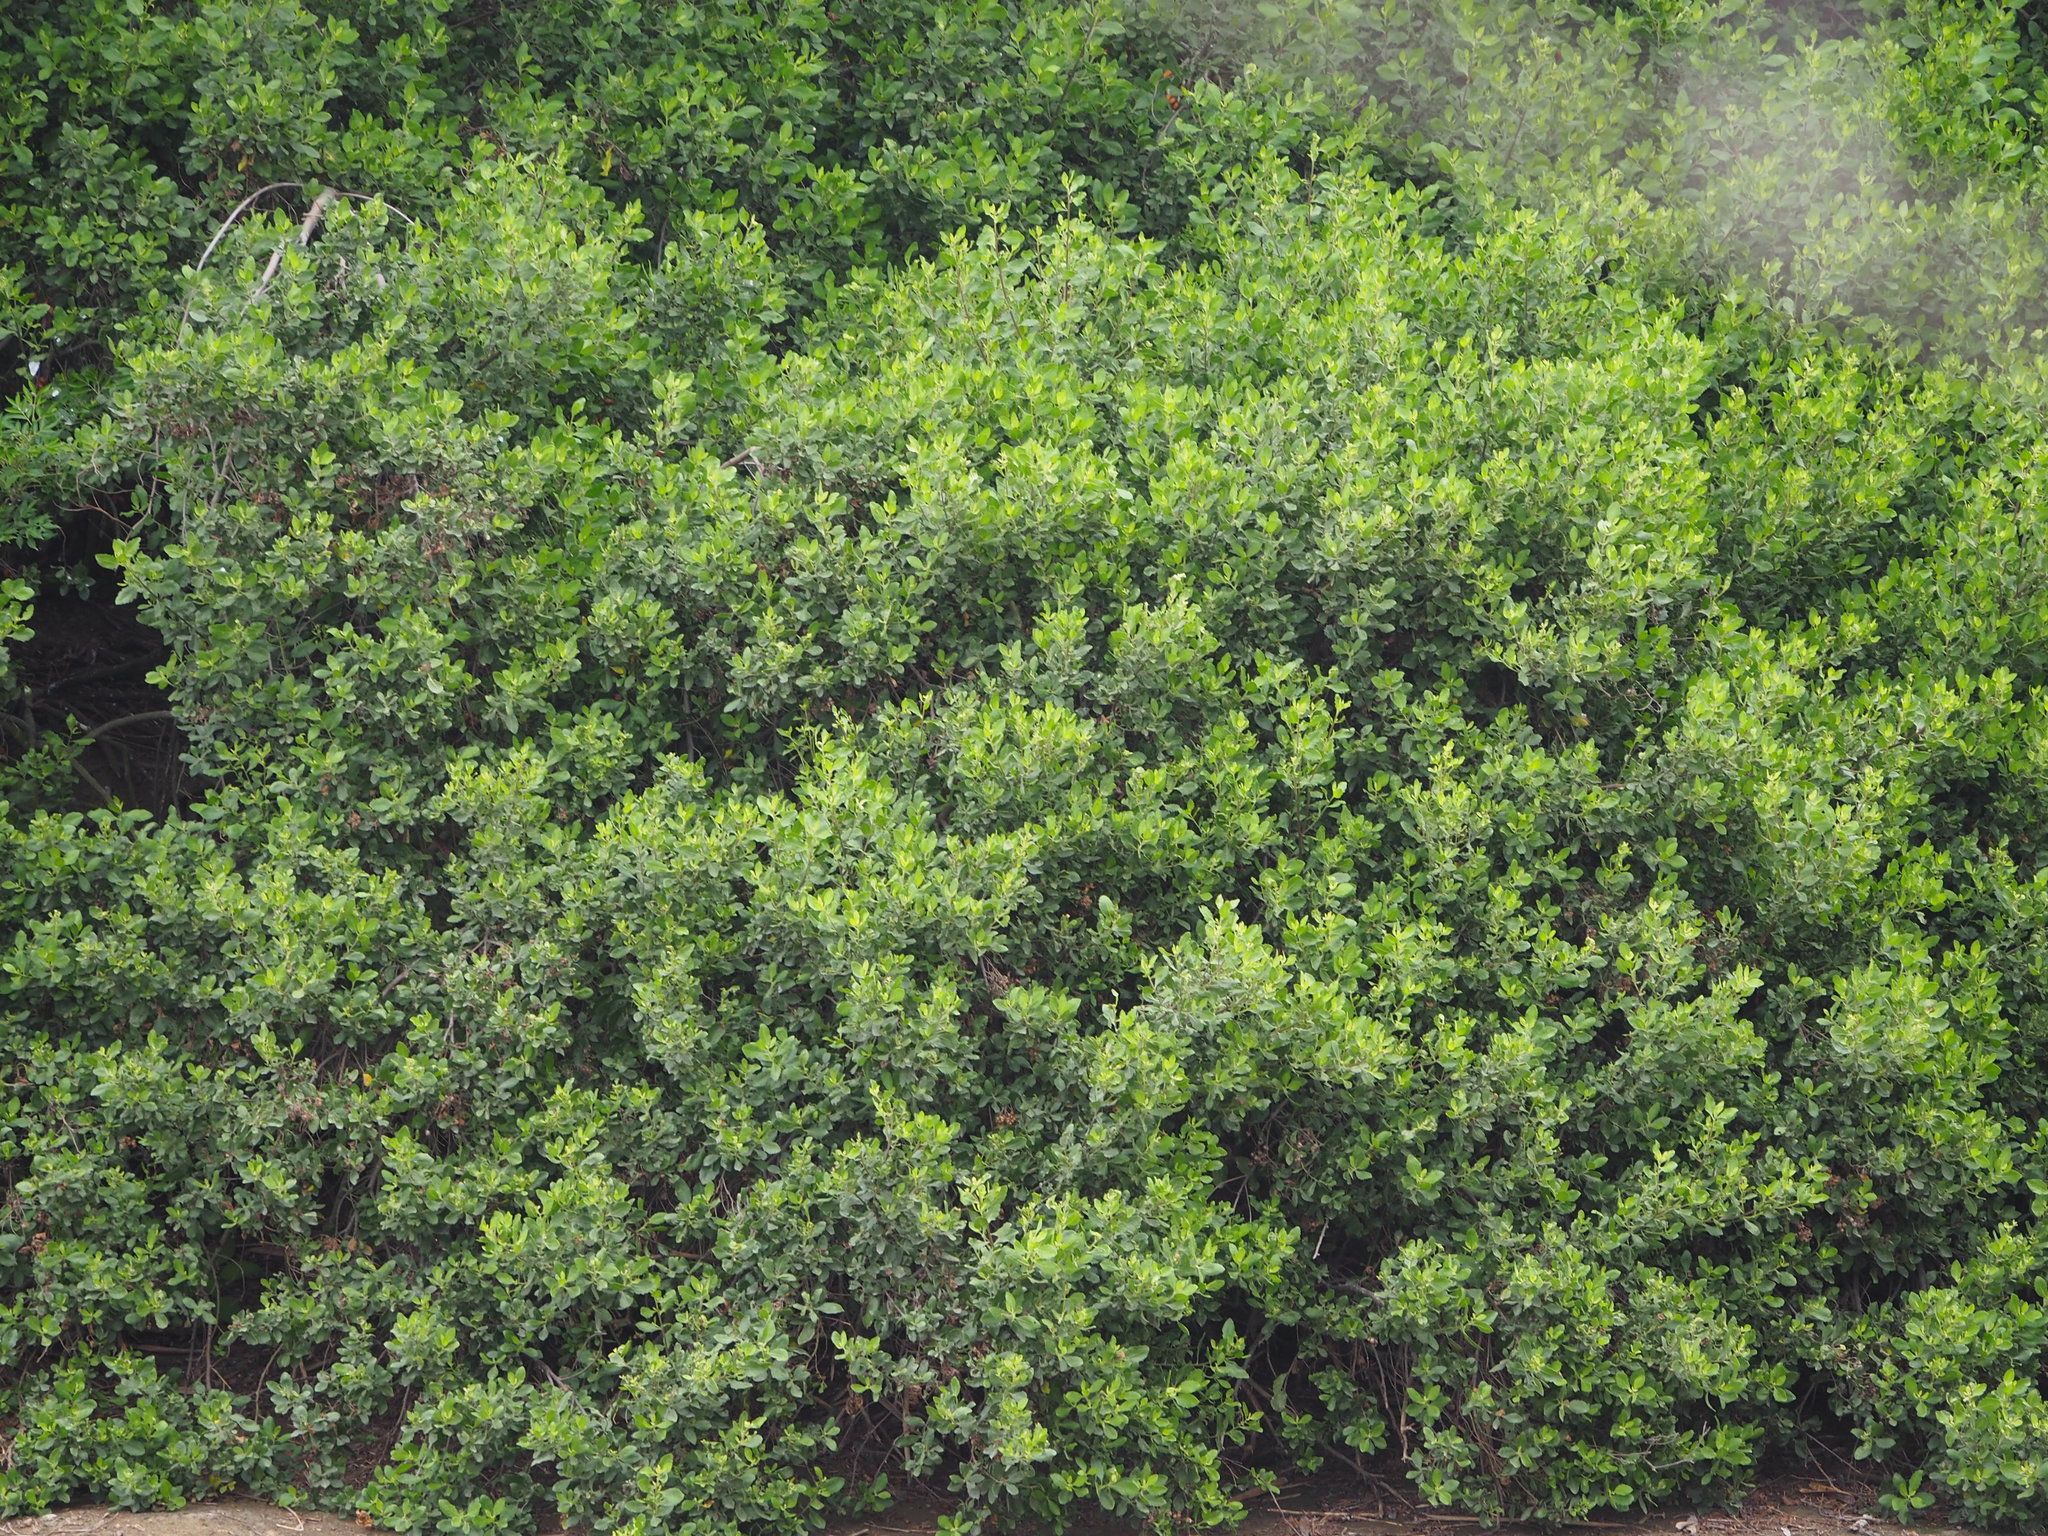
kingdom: Plantae
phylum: Tracheophyta
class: Magnoliopsida
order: Lamiales
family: Acanthaceae
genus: Avicennia
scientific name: Avicennia marina
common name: Gray mangrove
